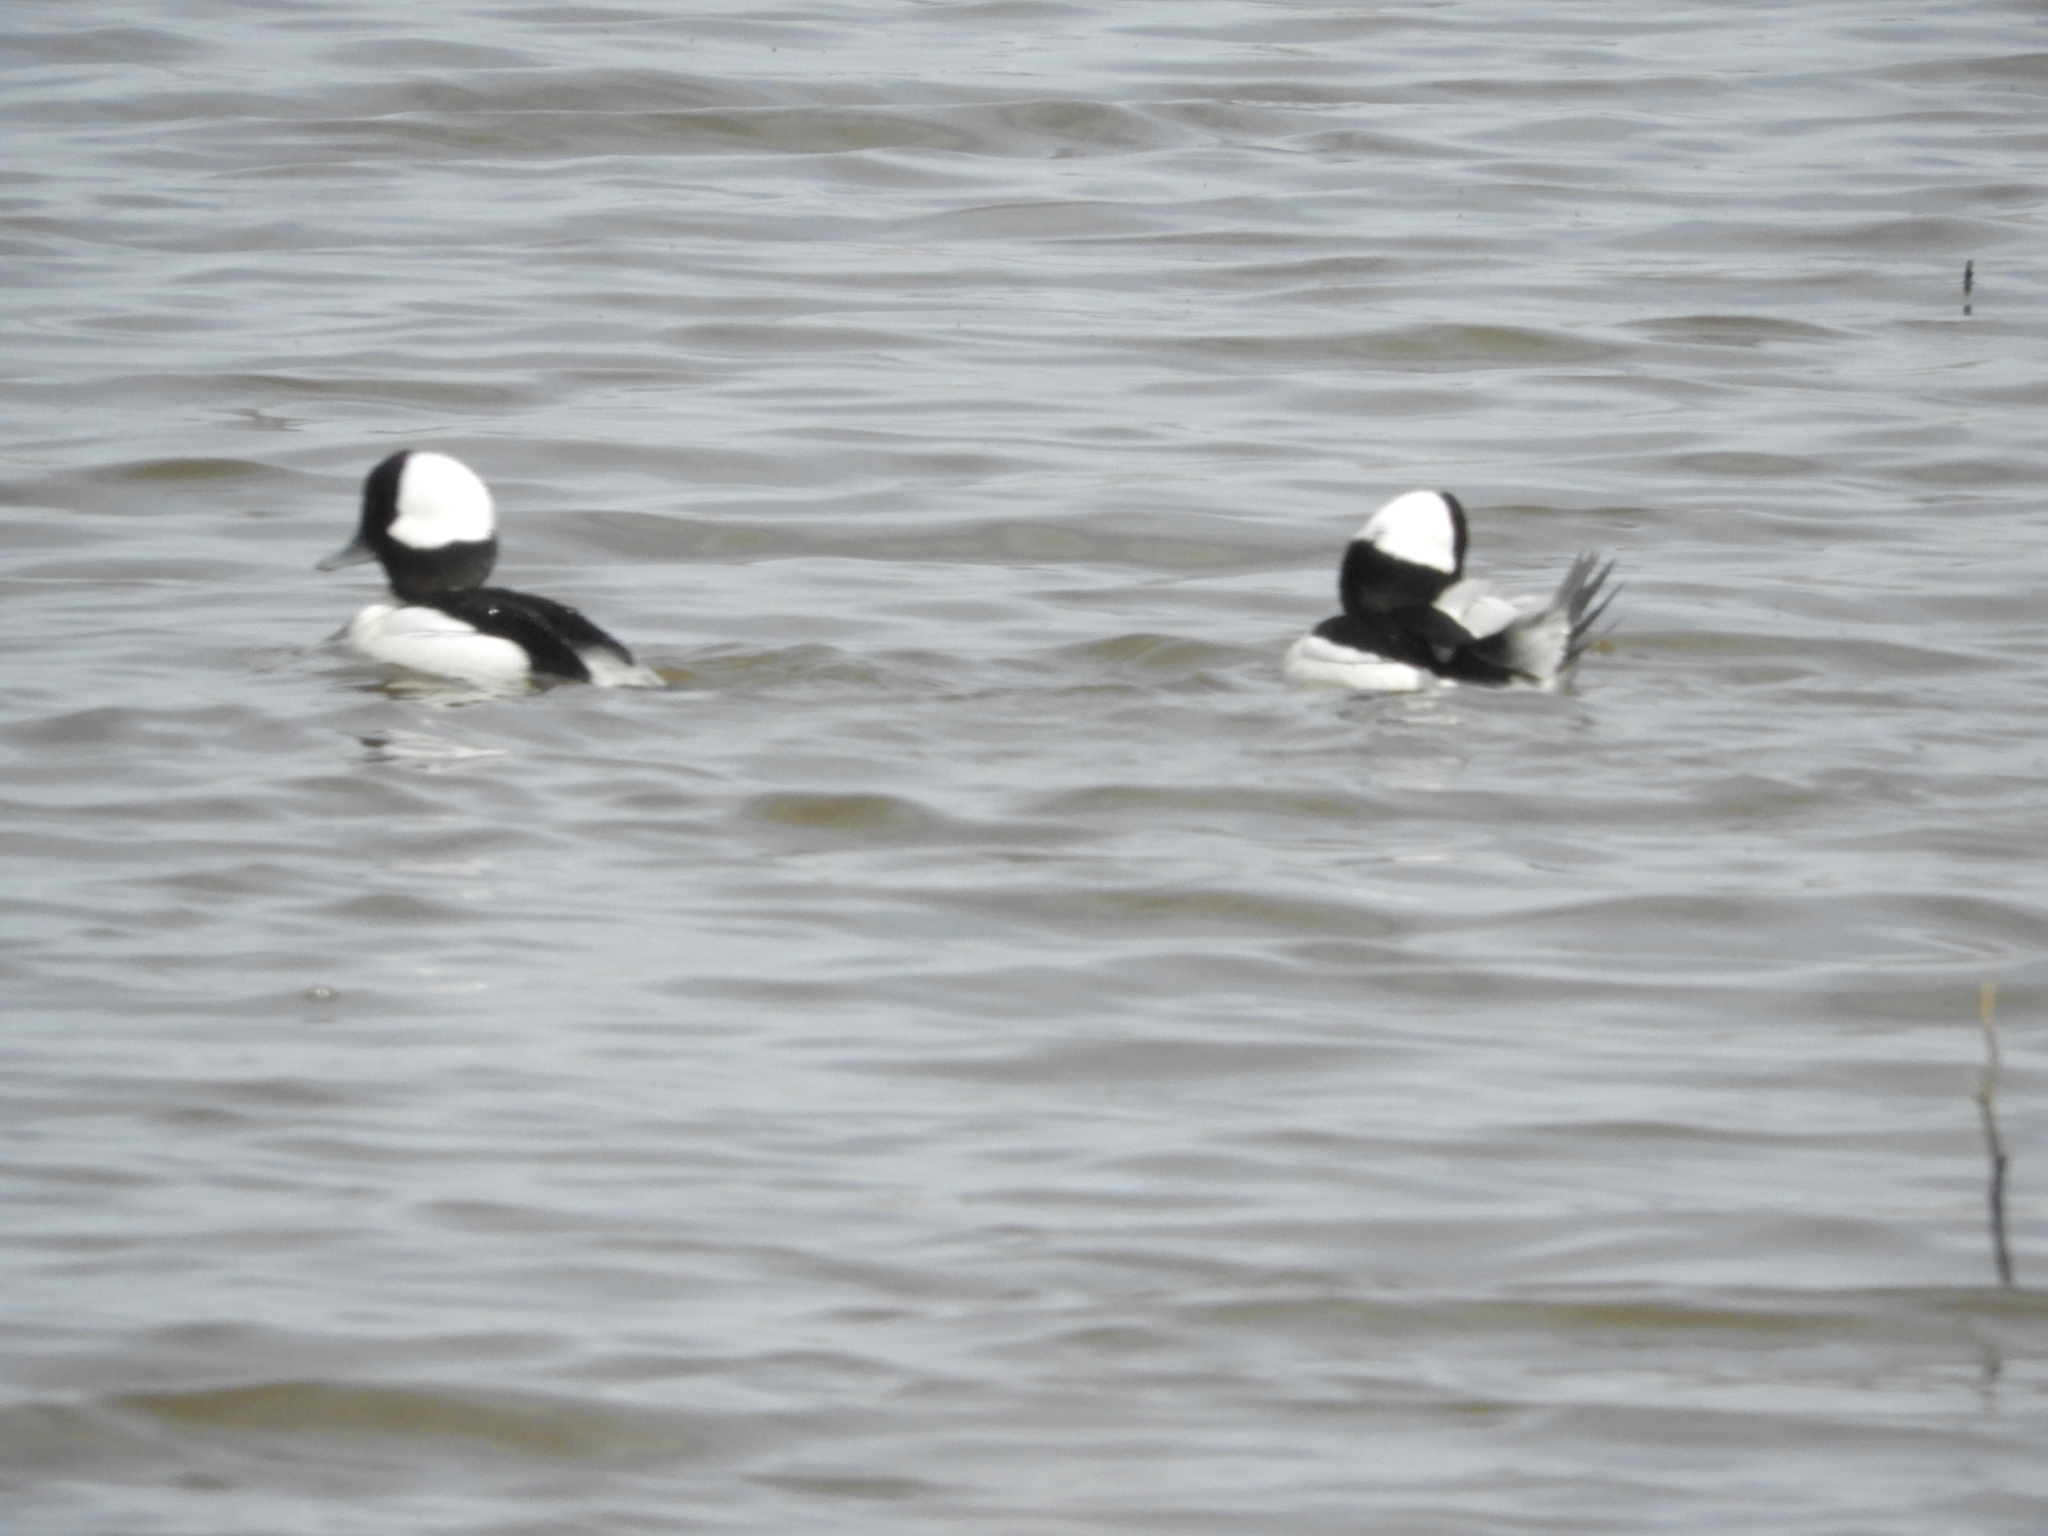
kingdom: Animalia
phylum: Chordata
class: Aves
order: Anseriformes
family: Anatidae
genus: Bucephala
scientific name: Bucephala albeola
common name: Bufflehead
